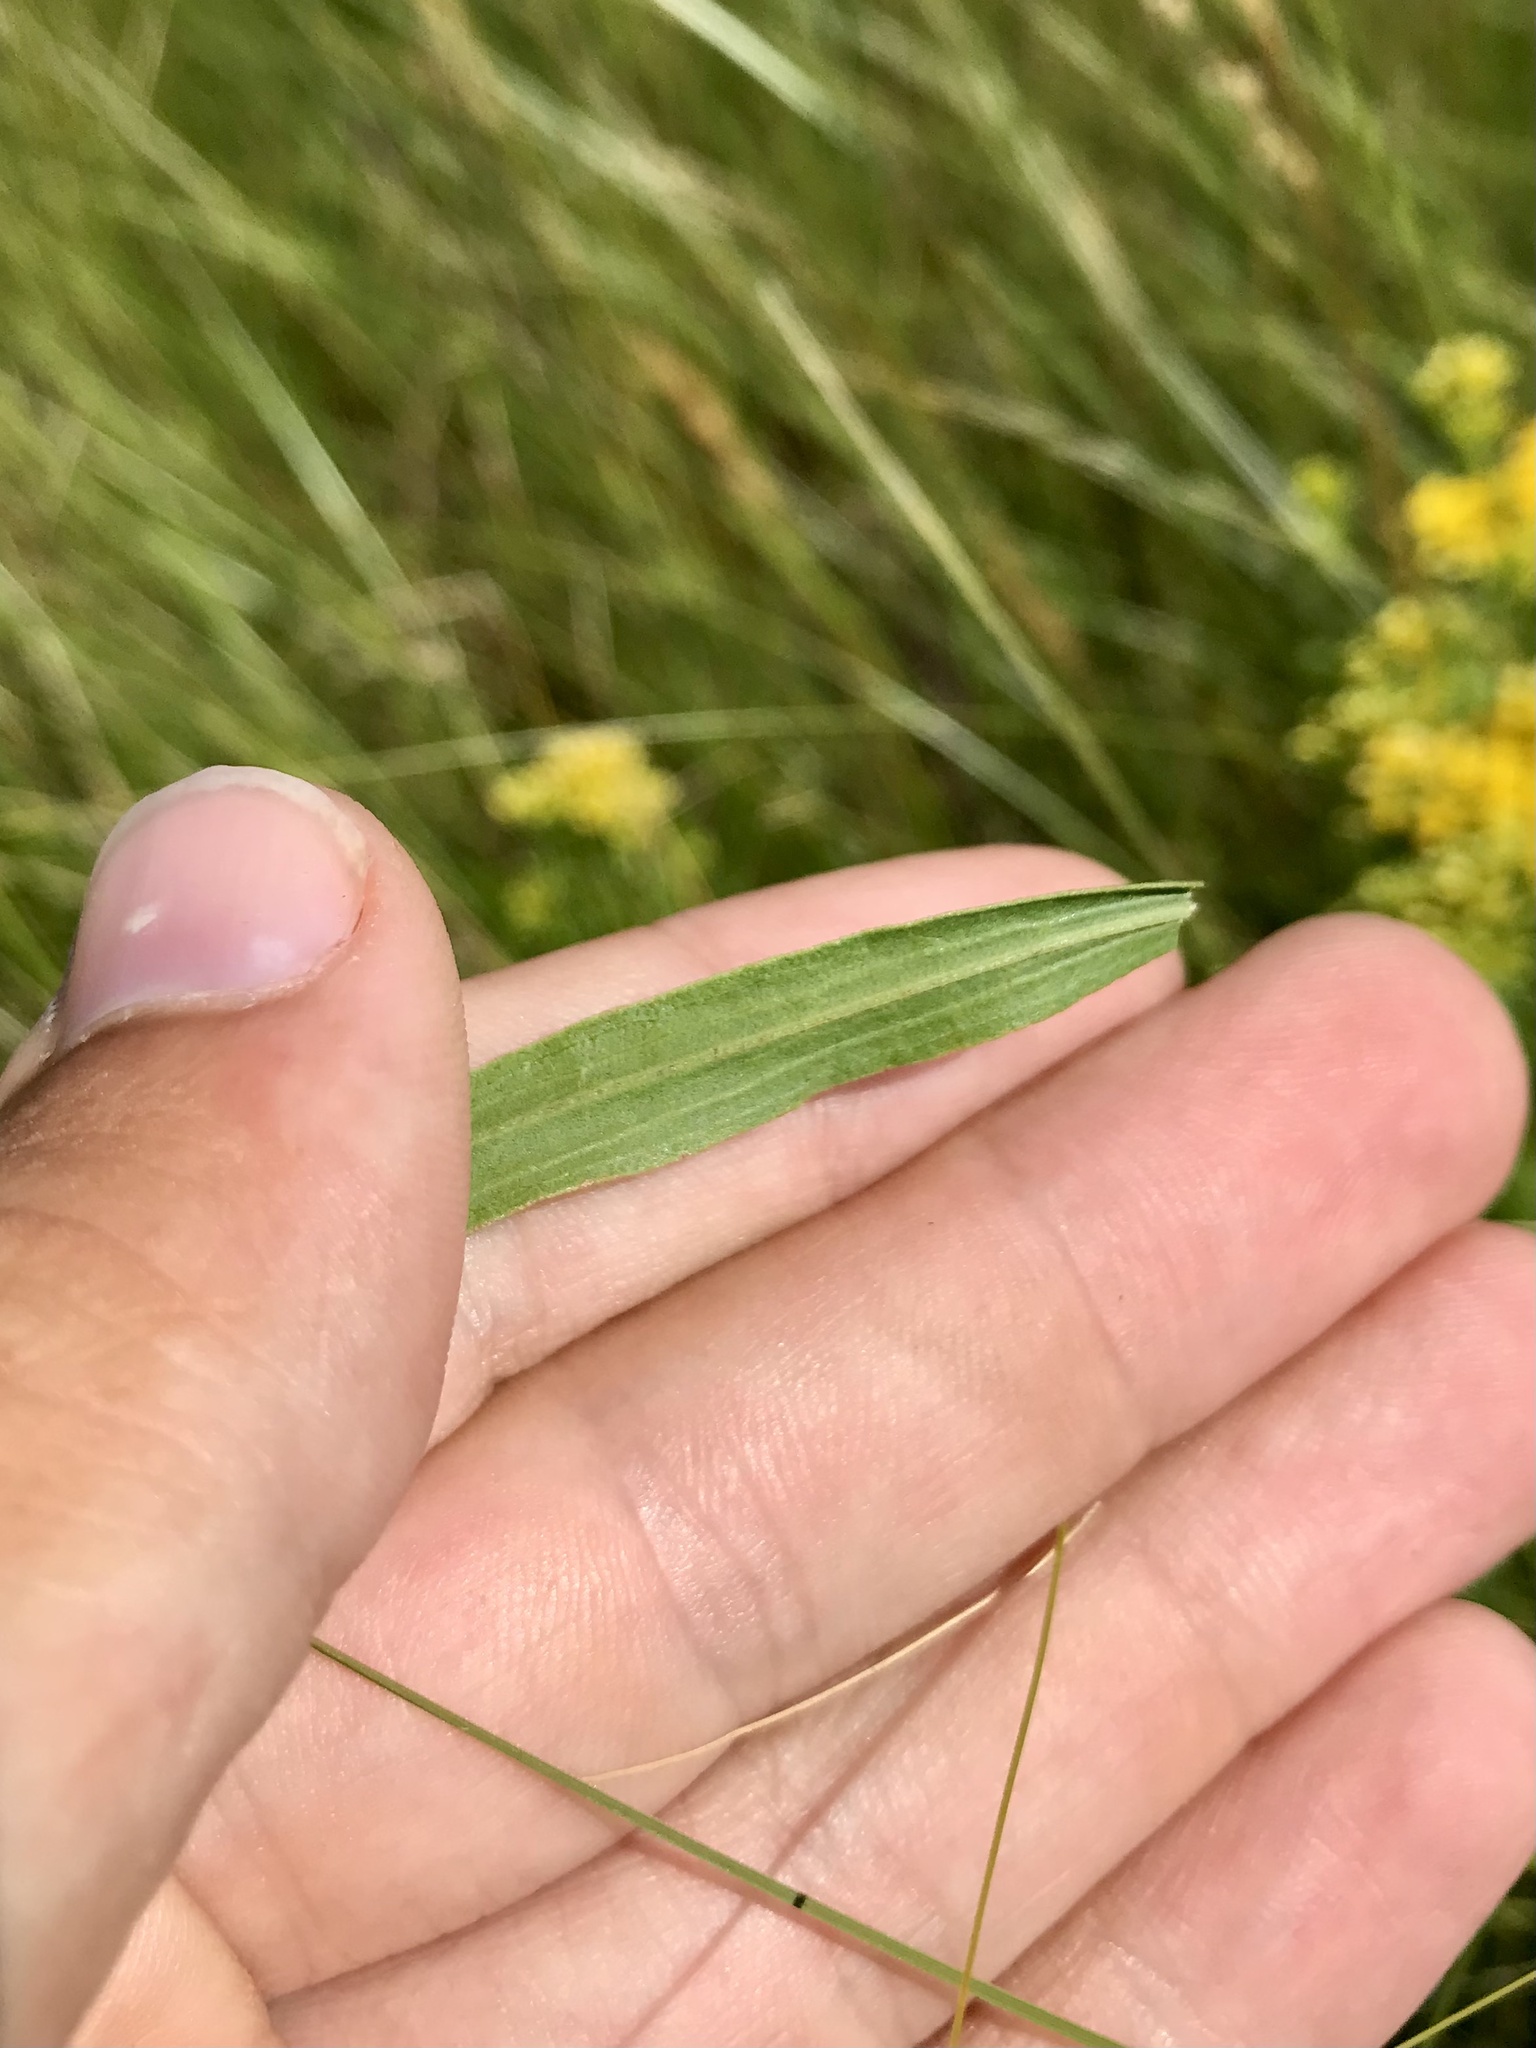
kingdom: Plantae
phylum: Tracheophyta
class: Magnoliopsida
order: Asterales
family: Asteraceae
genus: Euthamia
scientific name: Euthamia graminifolia
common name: Common goldentop
